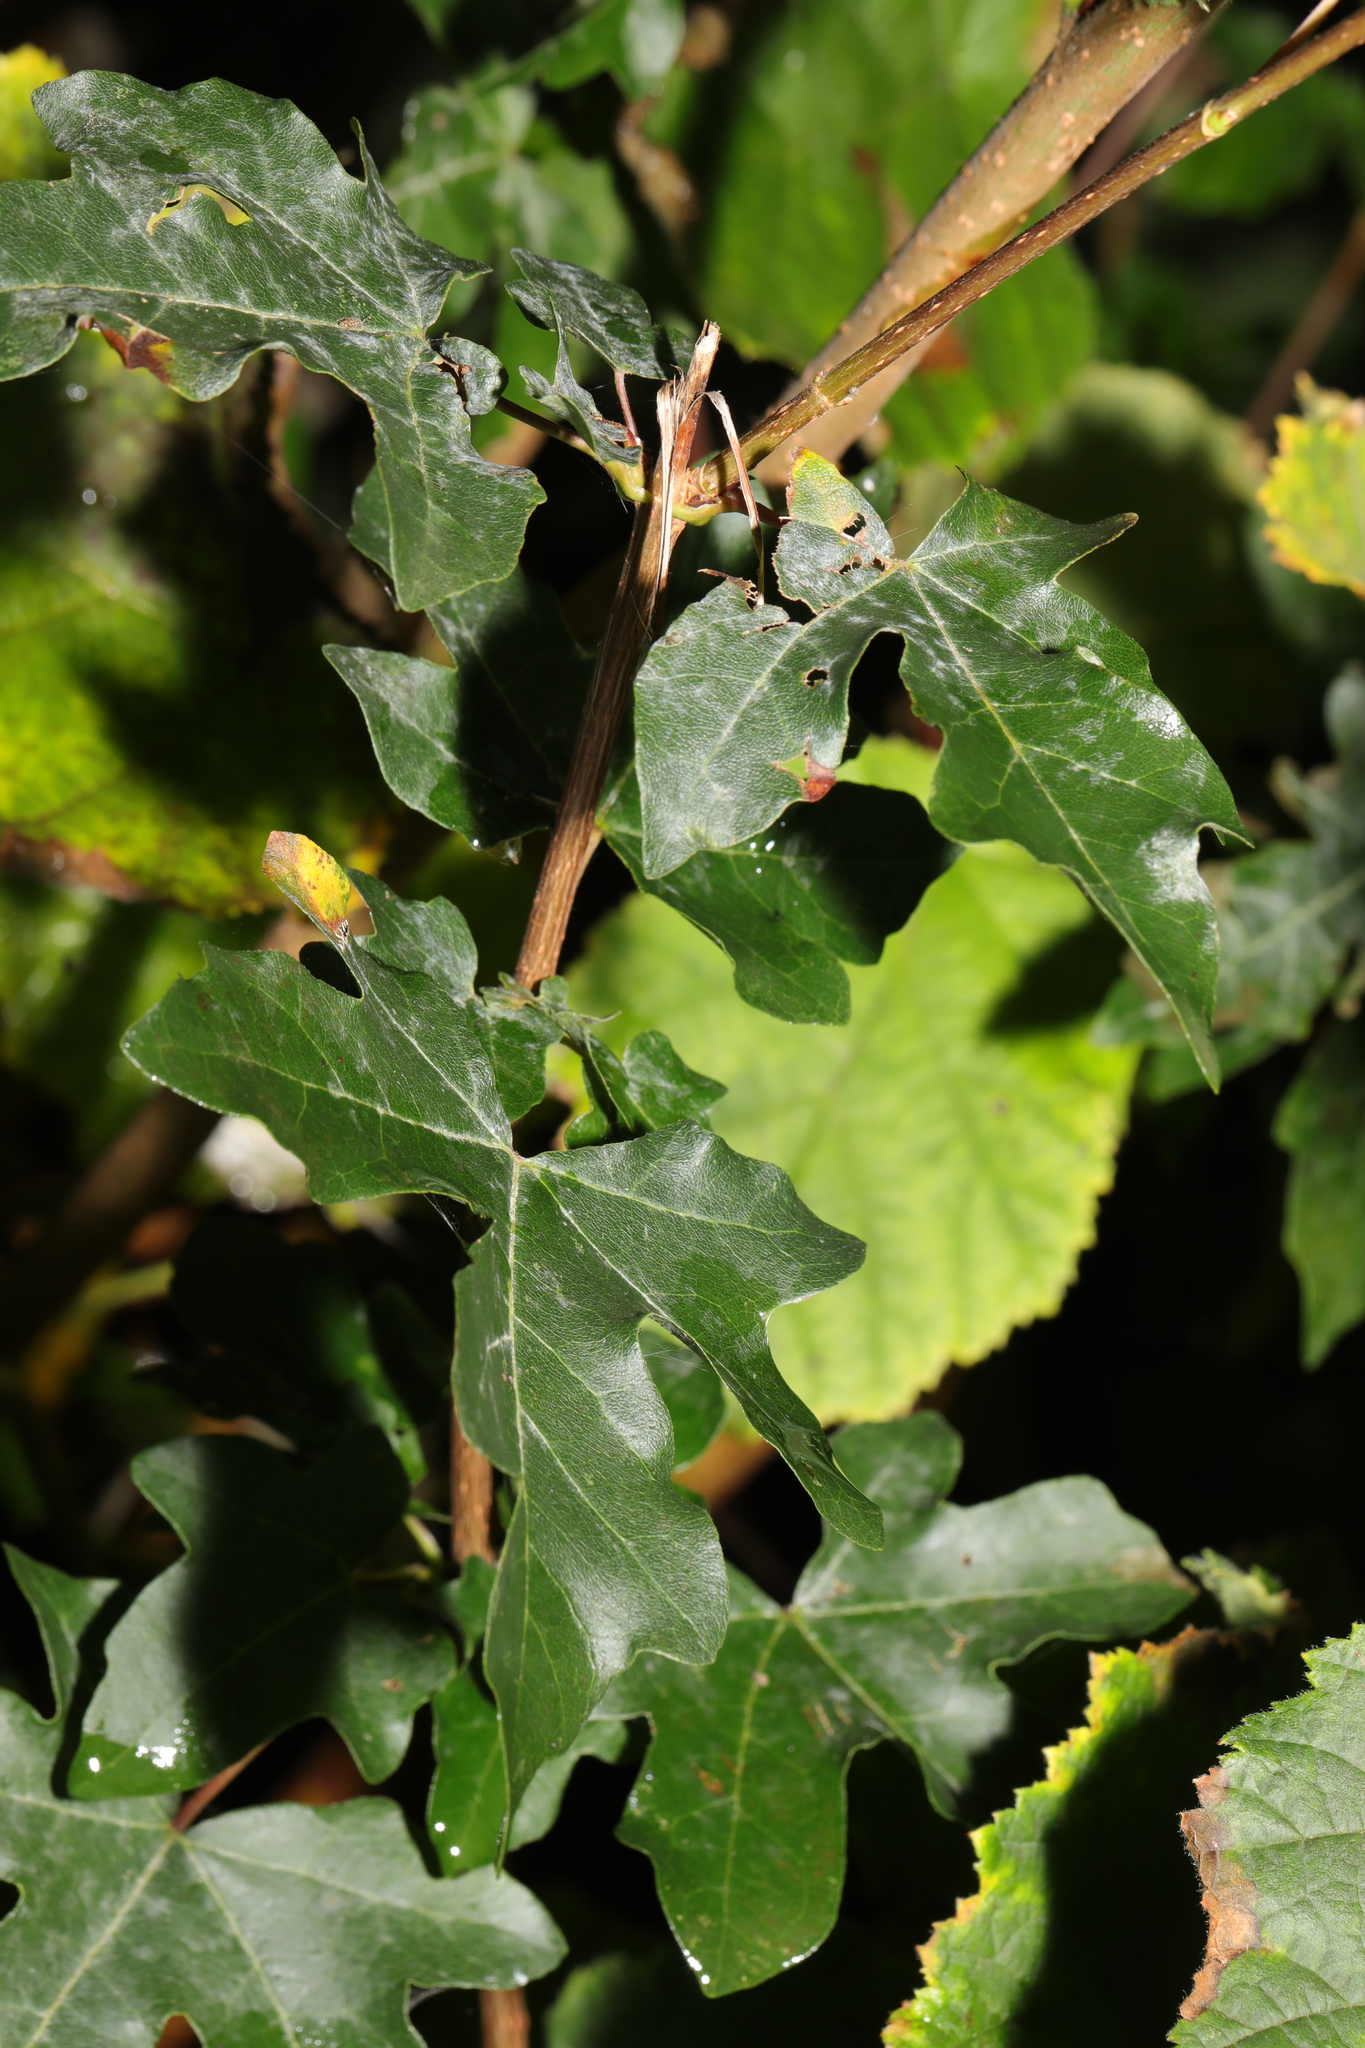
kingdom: Plantae
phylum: Tracheophyta
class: Magnoliopsida
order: Sapindales
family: Sapindaceae
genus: Acer
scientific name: Acer campestre
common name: Field maple
